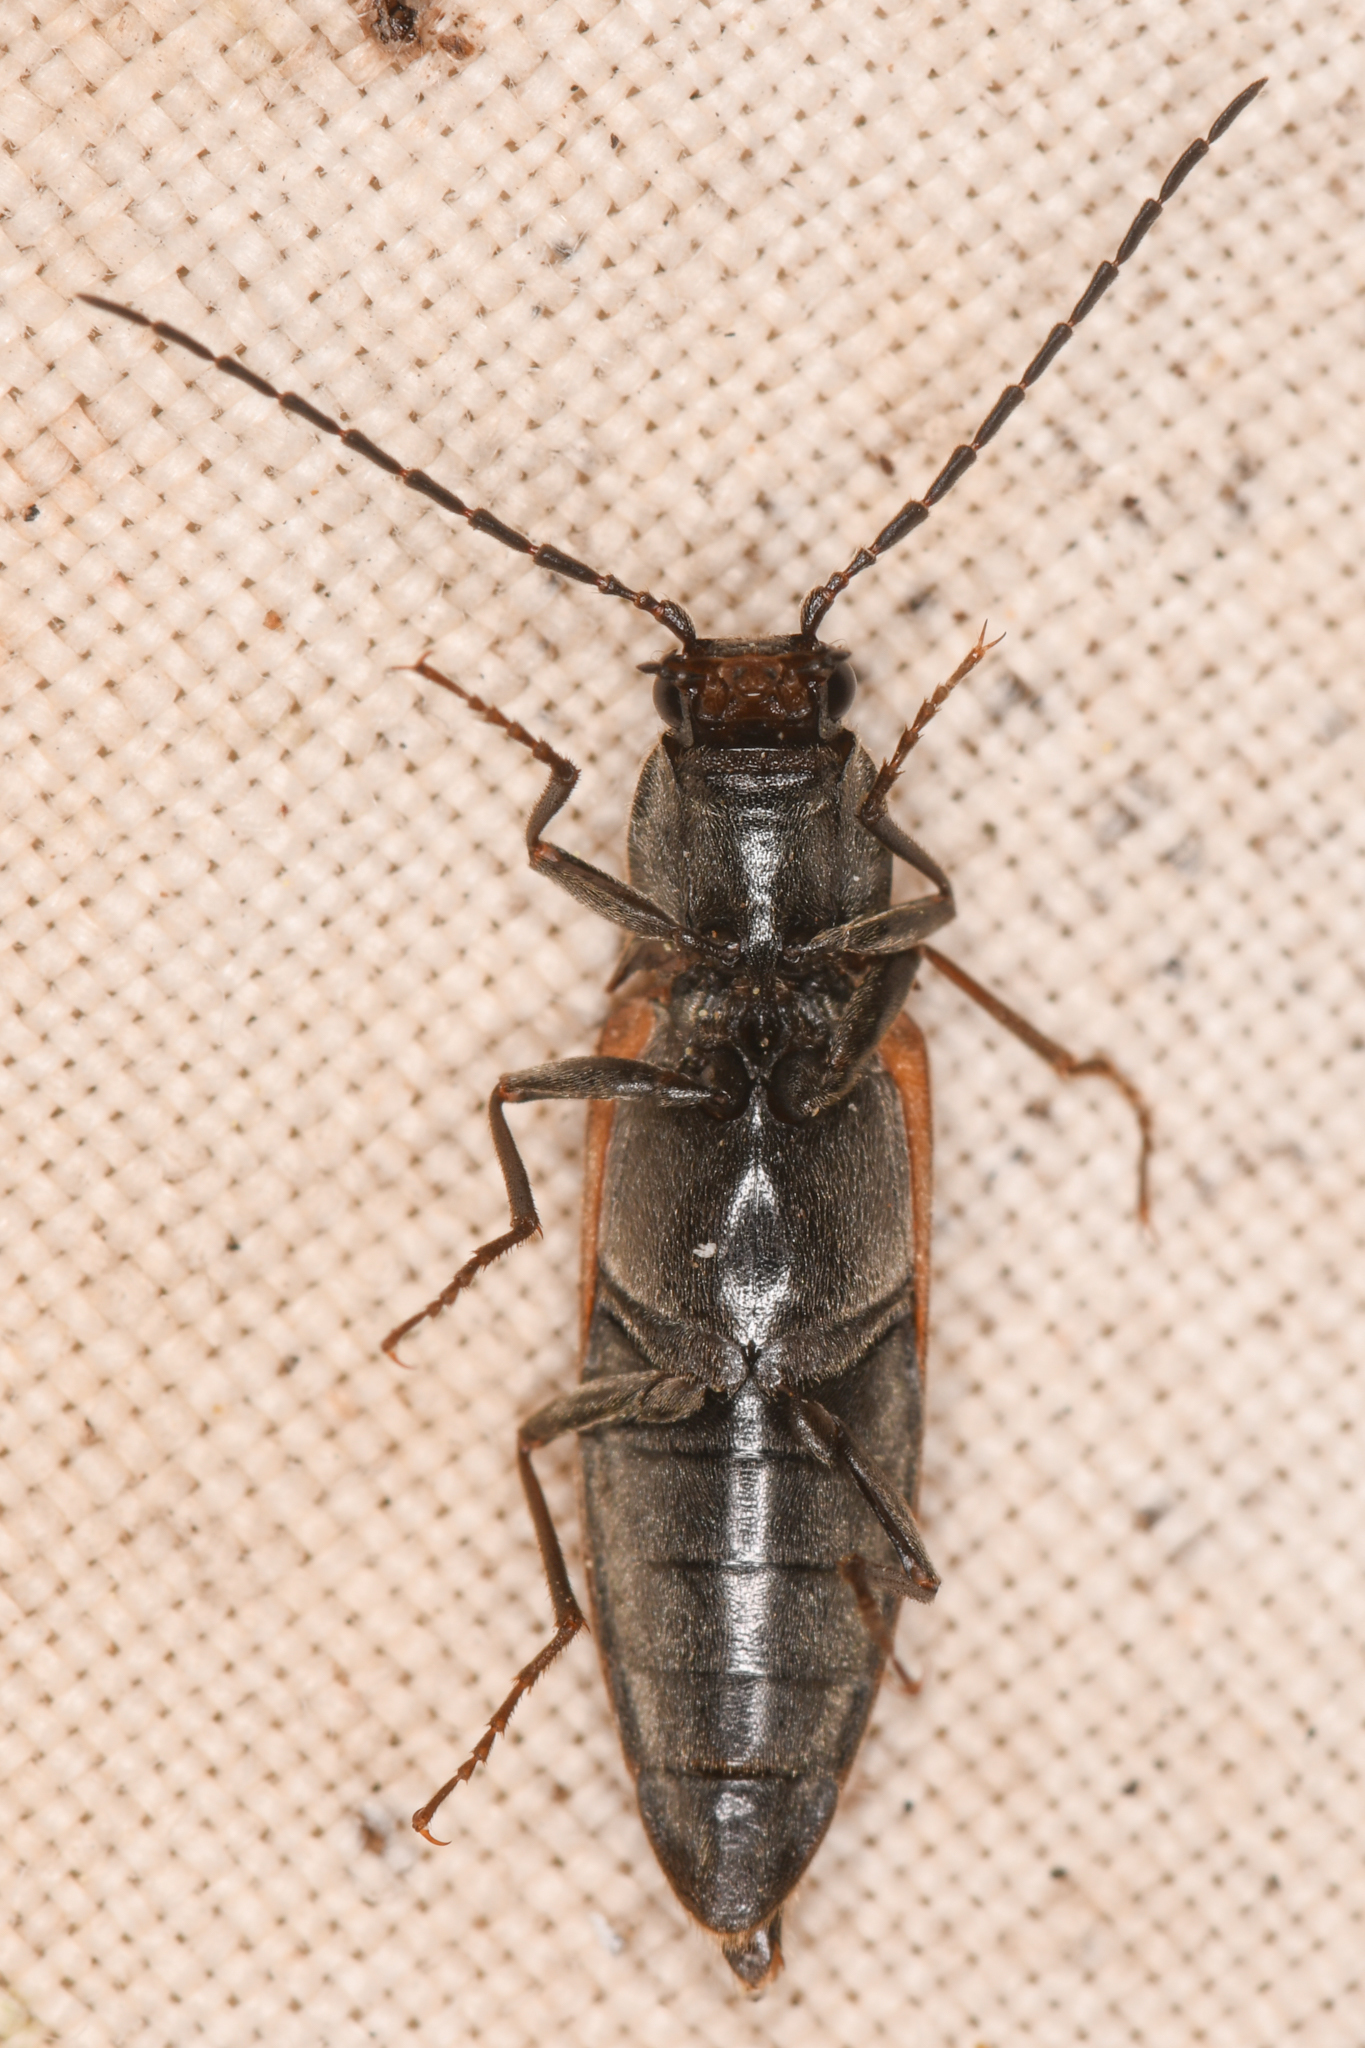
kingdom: Animalia
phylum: Arthropoda
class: Insecta
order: Coleoptera
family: Elateridae
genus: Acteniceromorphus
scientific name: Acteniceromorphus
